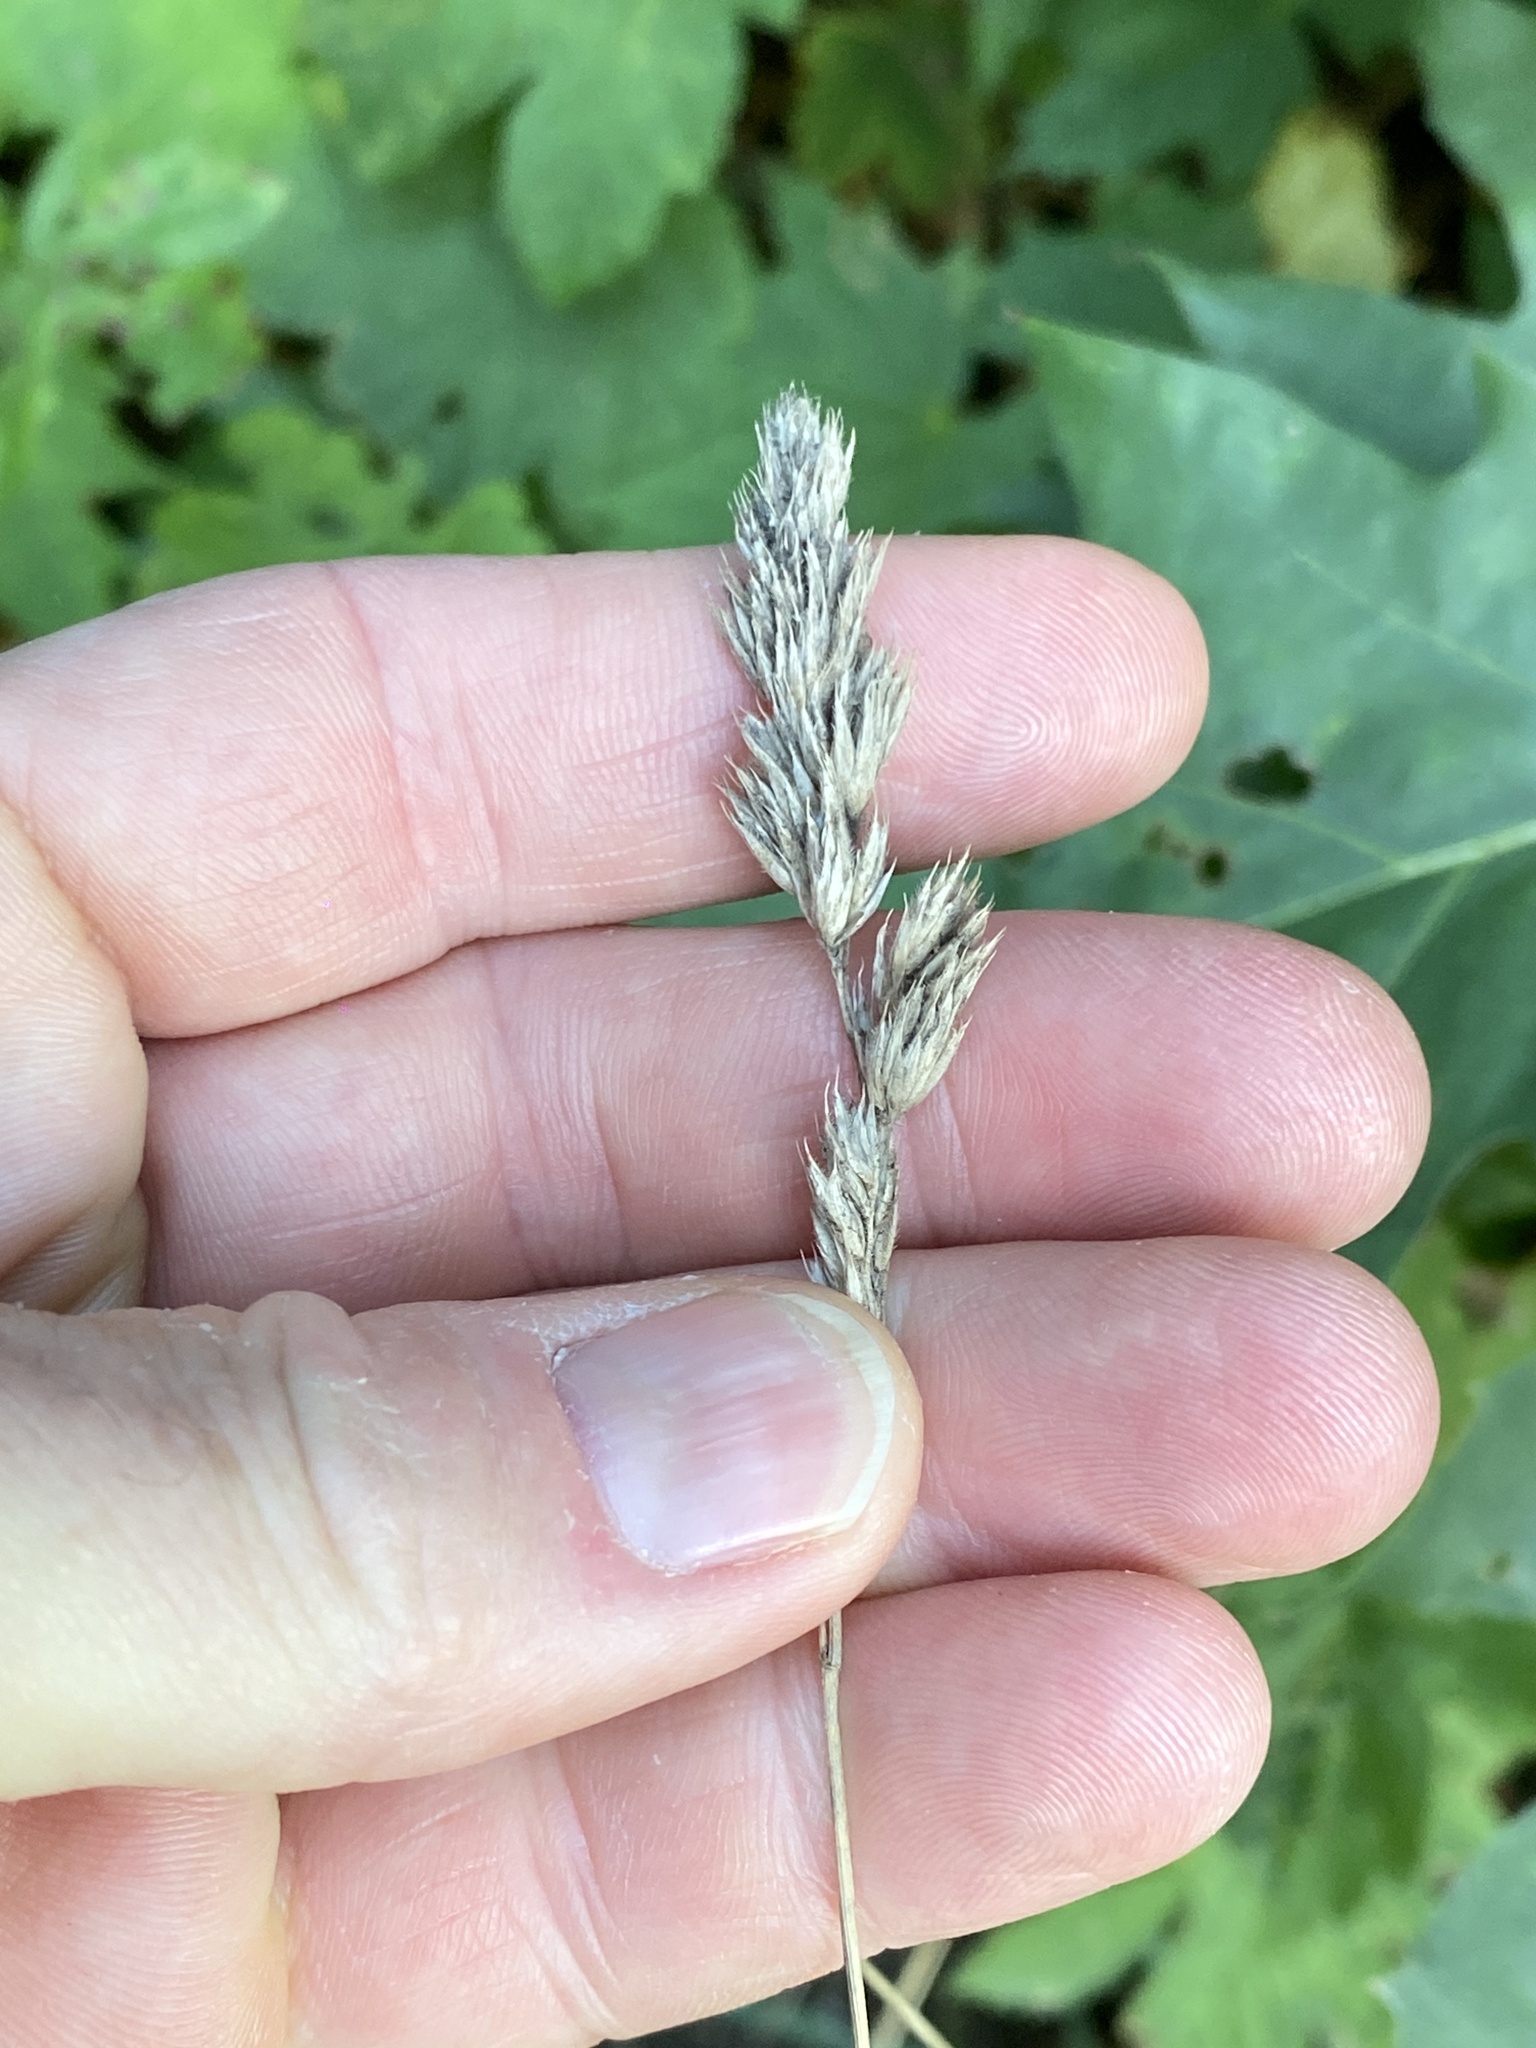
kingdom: Plantae
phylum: Tracheophyta
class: Liliopsida
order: Poales
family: Poaceae
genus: Dactylis
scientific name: Dactylis glomerata
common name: Orchardgrass
